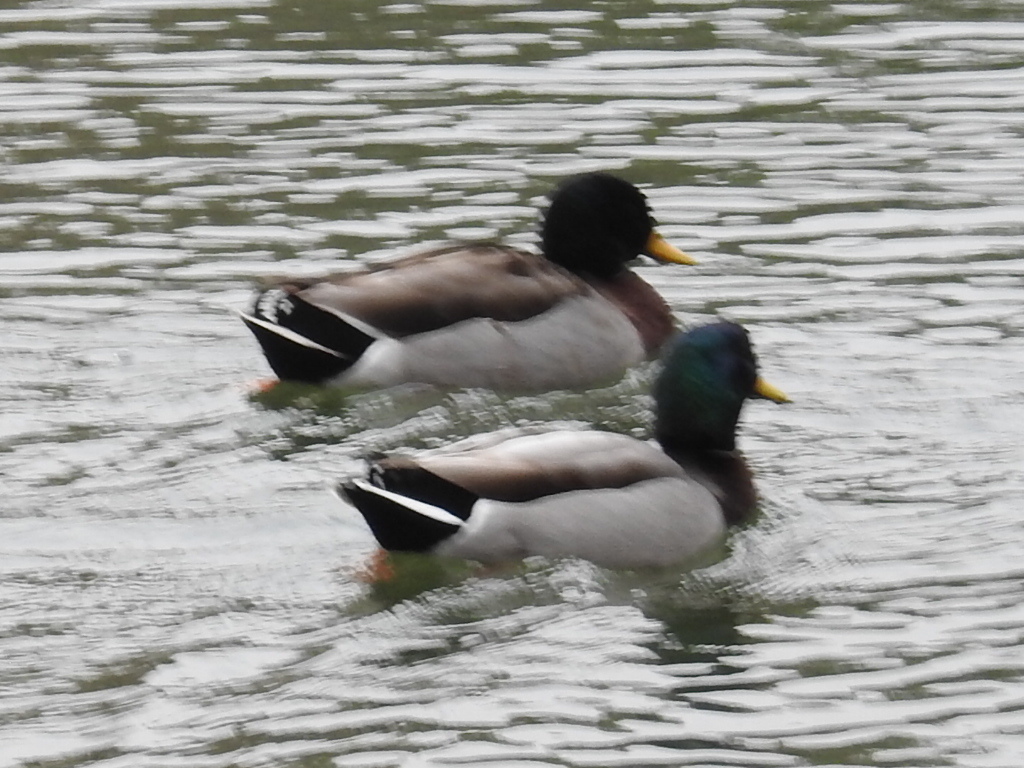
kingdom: Animalia
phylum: Chordata
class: Aves
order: Anseriformes
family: Anatidae
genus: Anas
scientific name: Anas platyrhynchos
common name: Mallard
